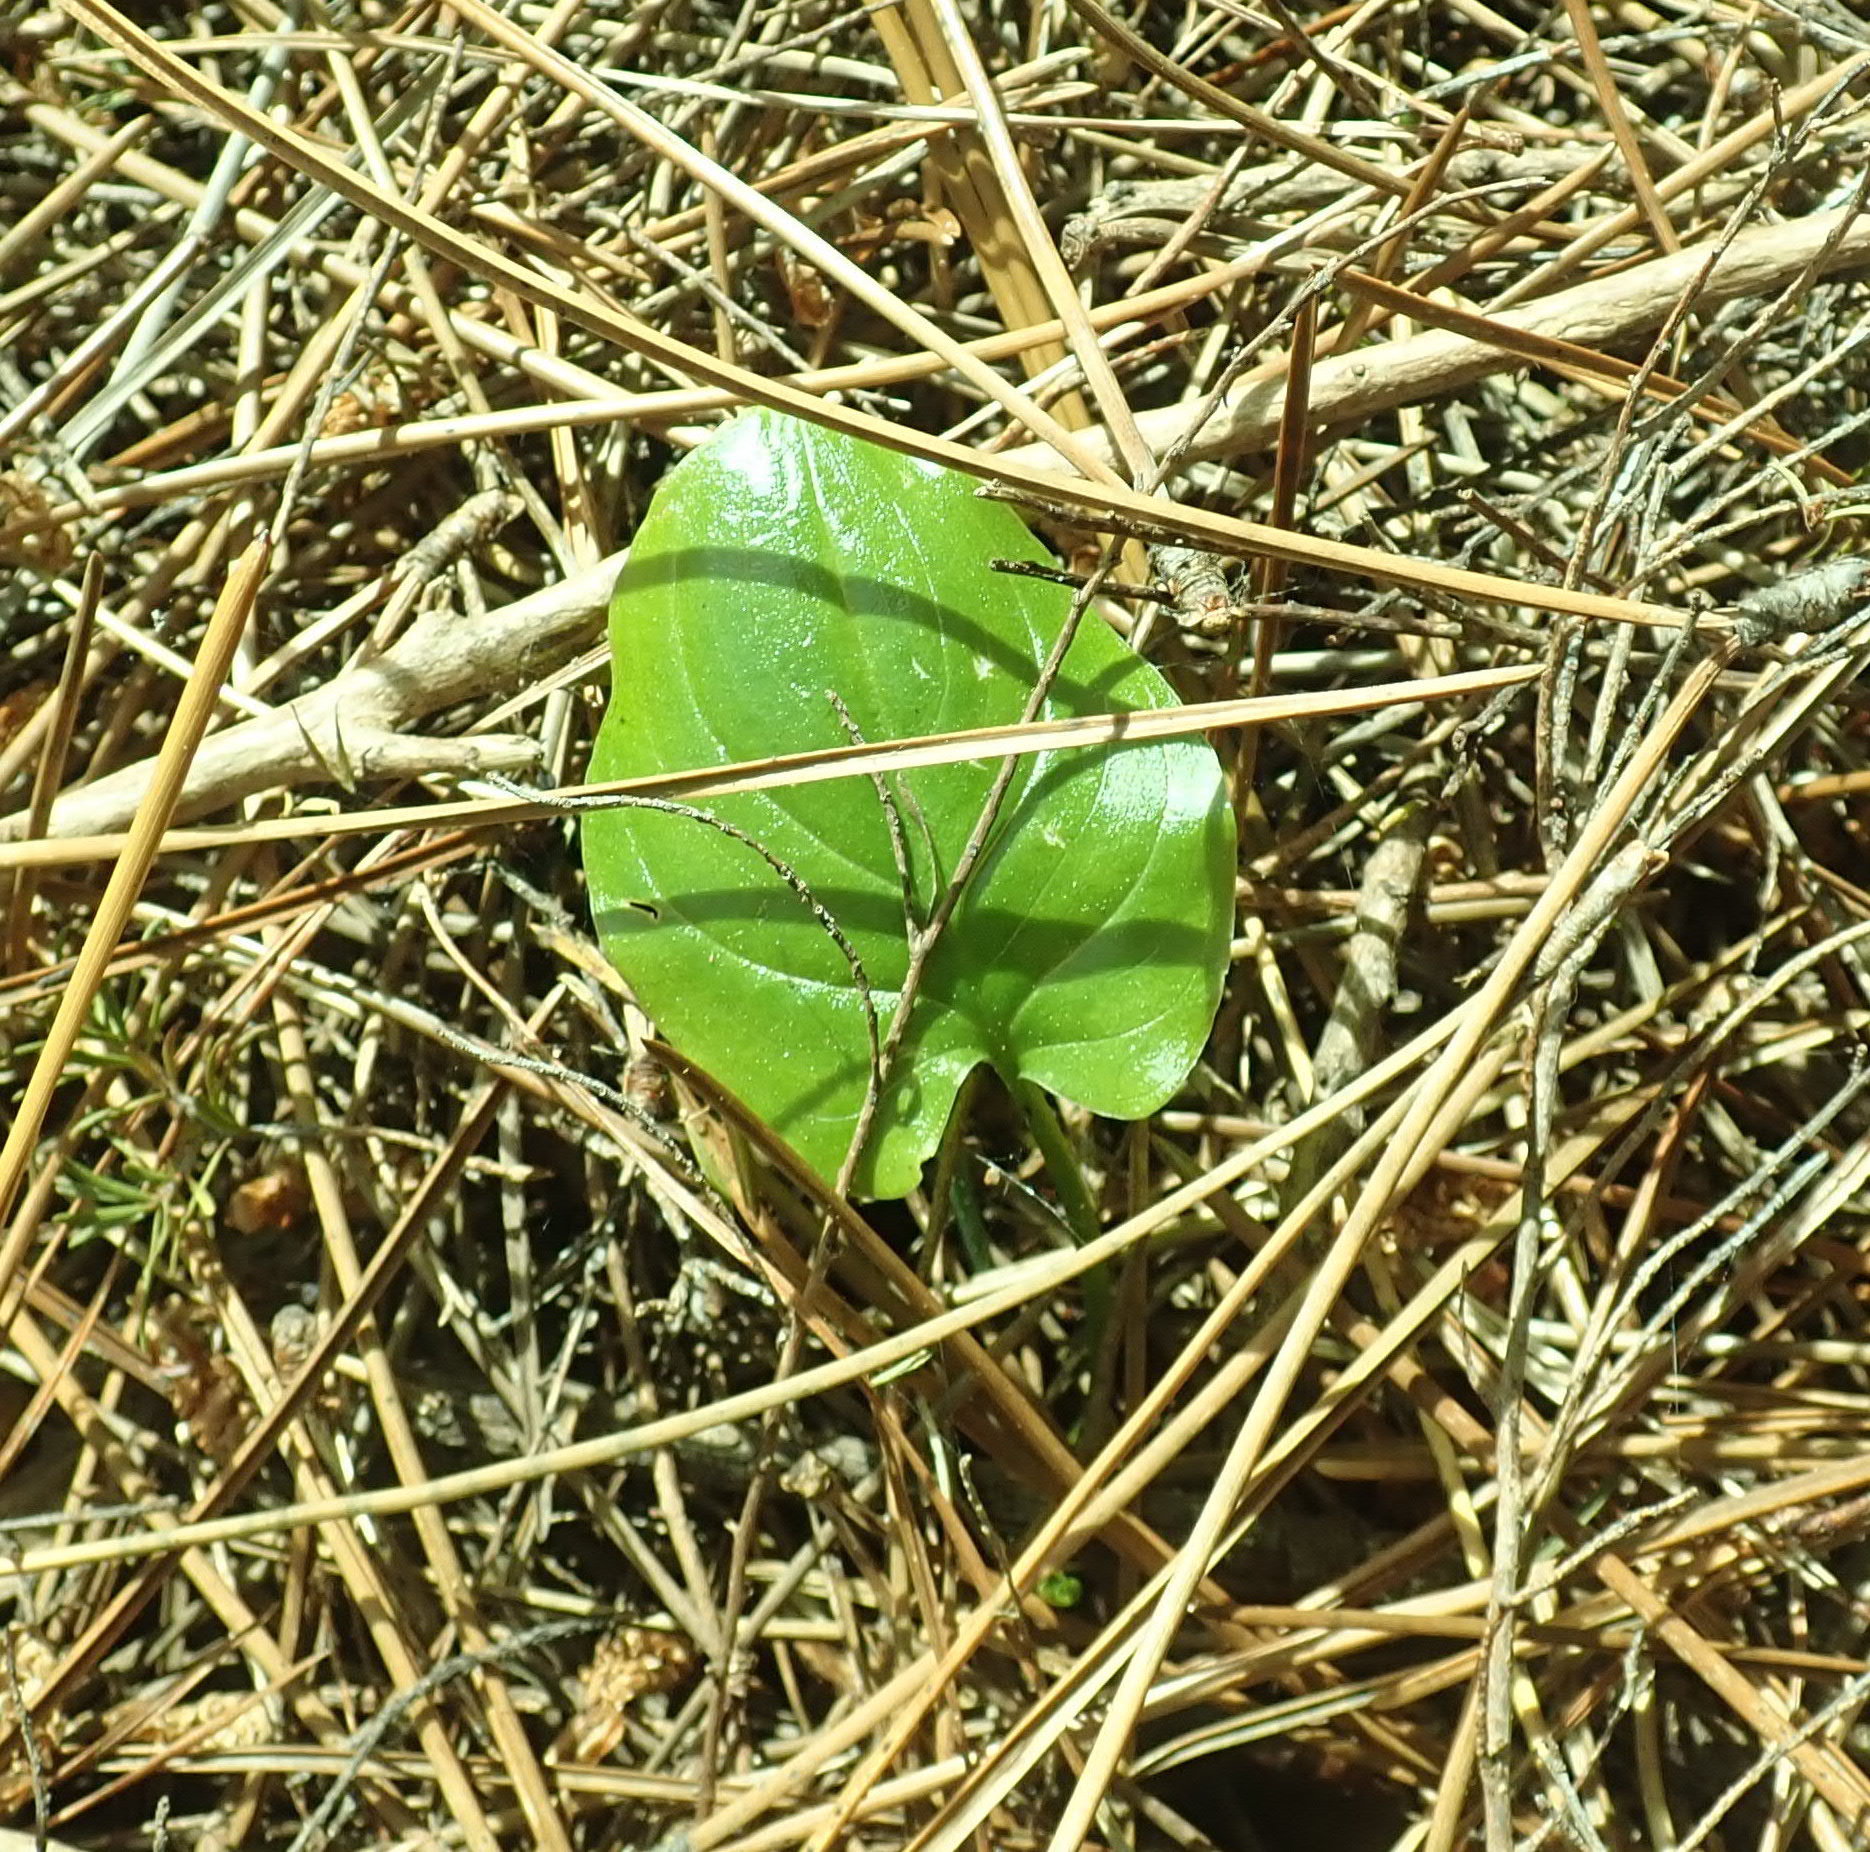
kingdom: Plantae
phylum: Tracheophyta
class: Liliopsida
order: Alismatales
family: Araceae
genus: Zantedeschia
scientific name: Zantedeschia aethiopica
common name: Altar-lily
